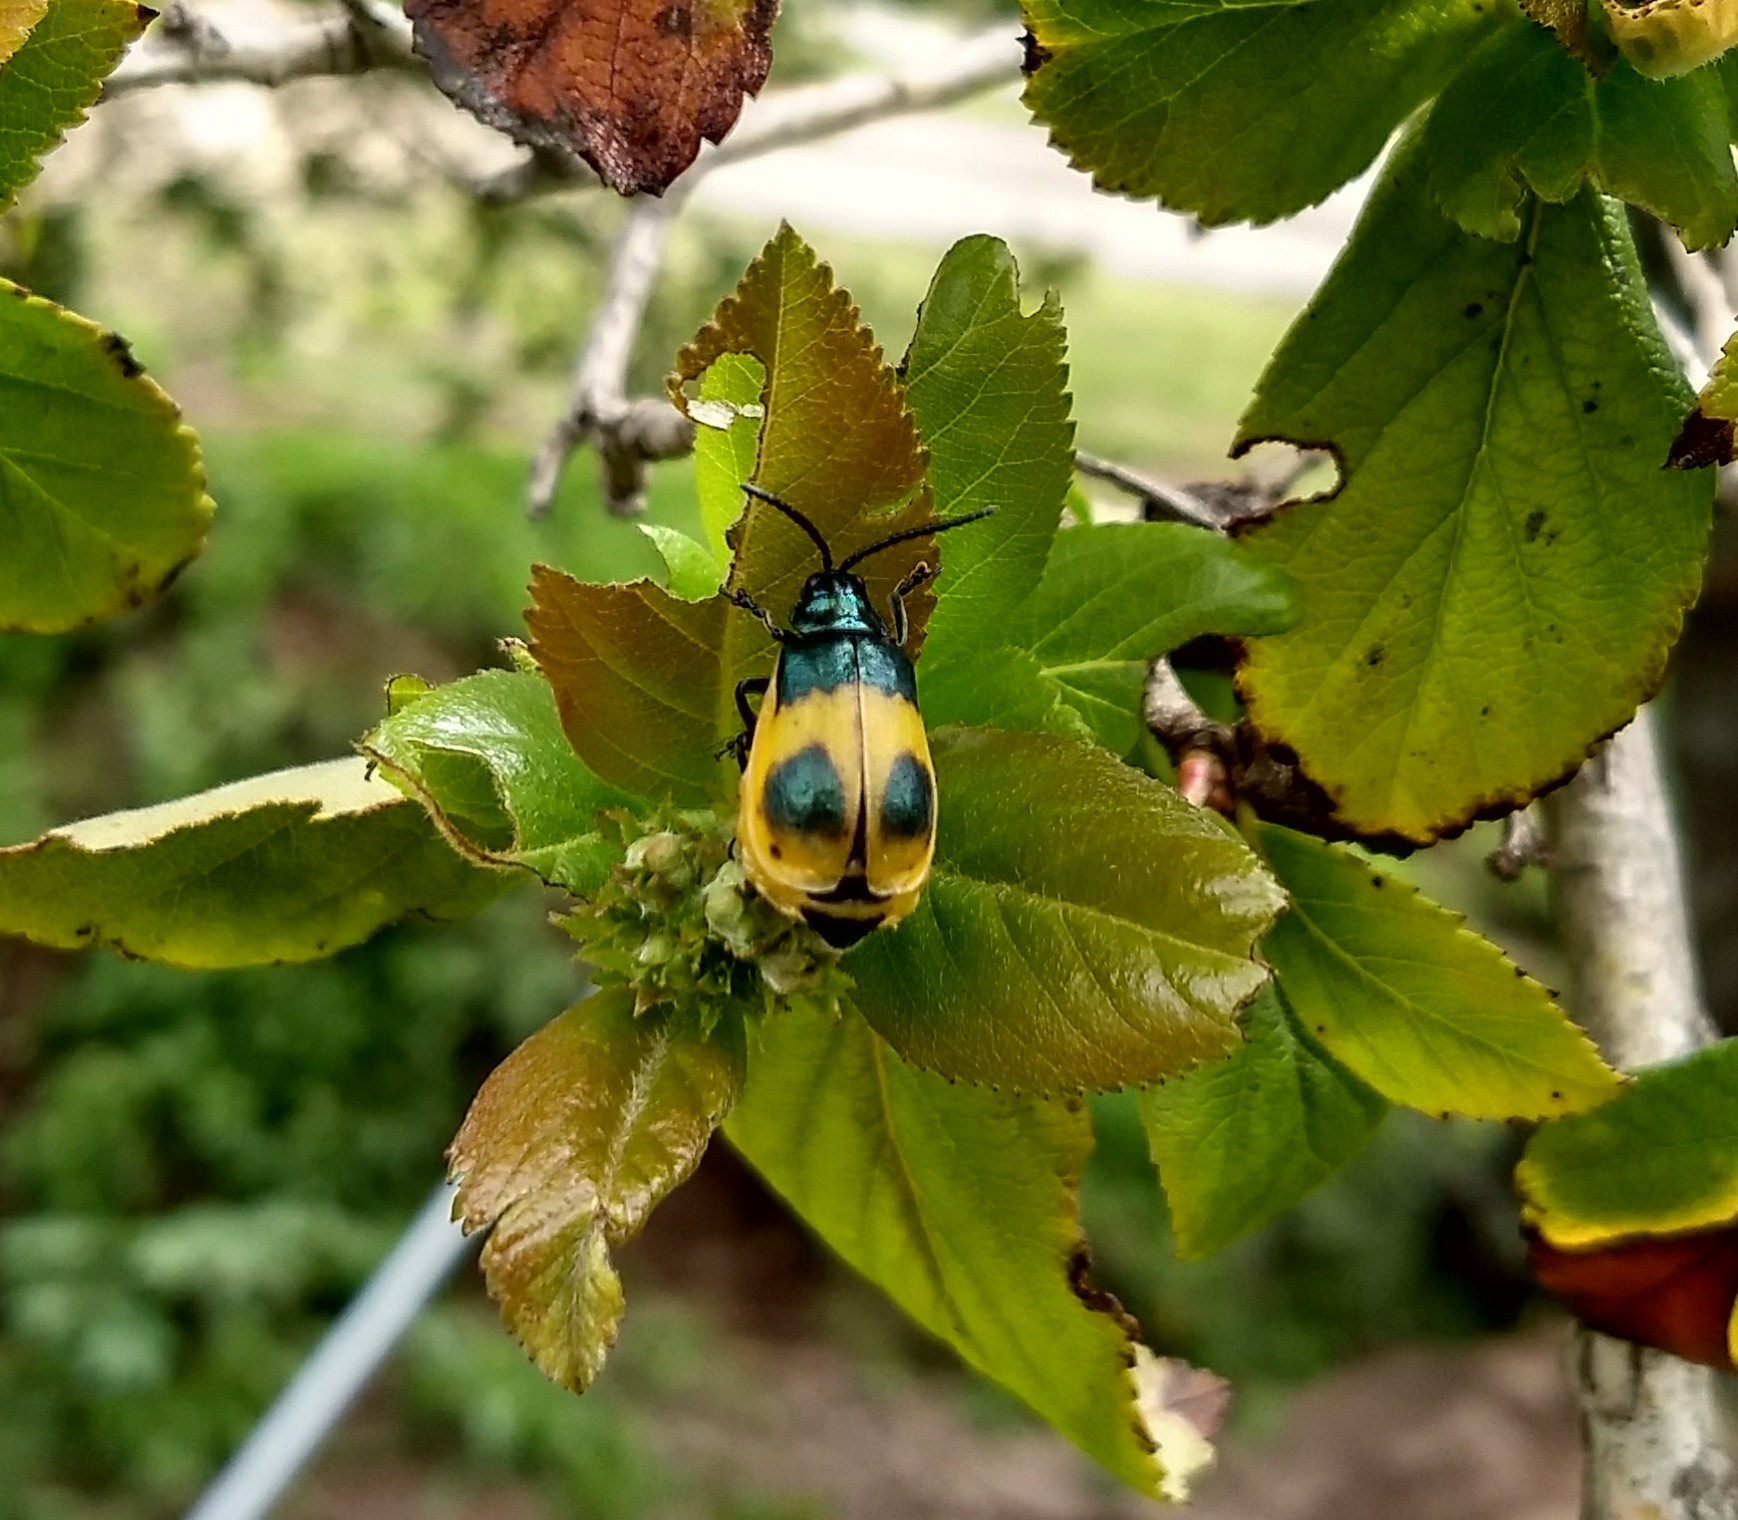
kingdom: Animalia
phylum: Arthropoda
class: Insecta
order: Coleoptera
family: Chrysomelidae
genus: Monocesta
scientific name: Monocesta
